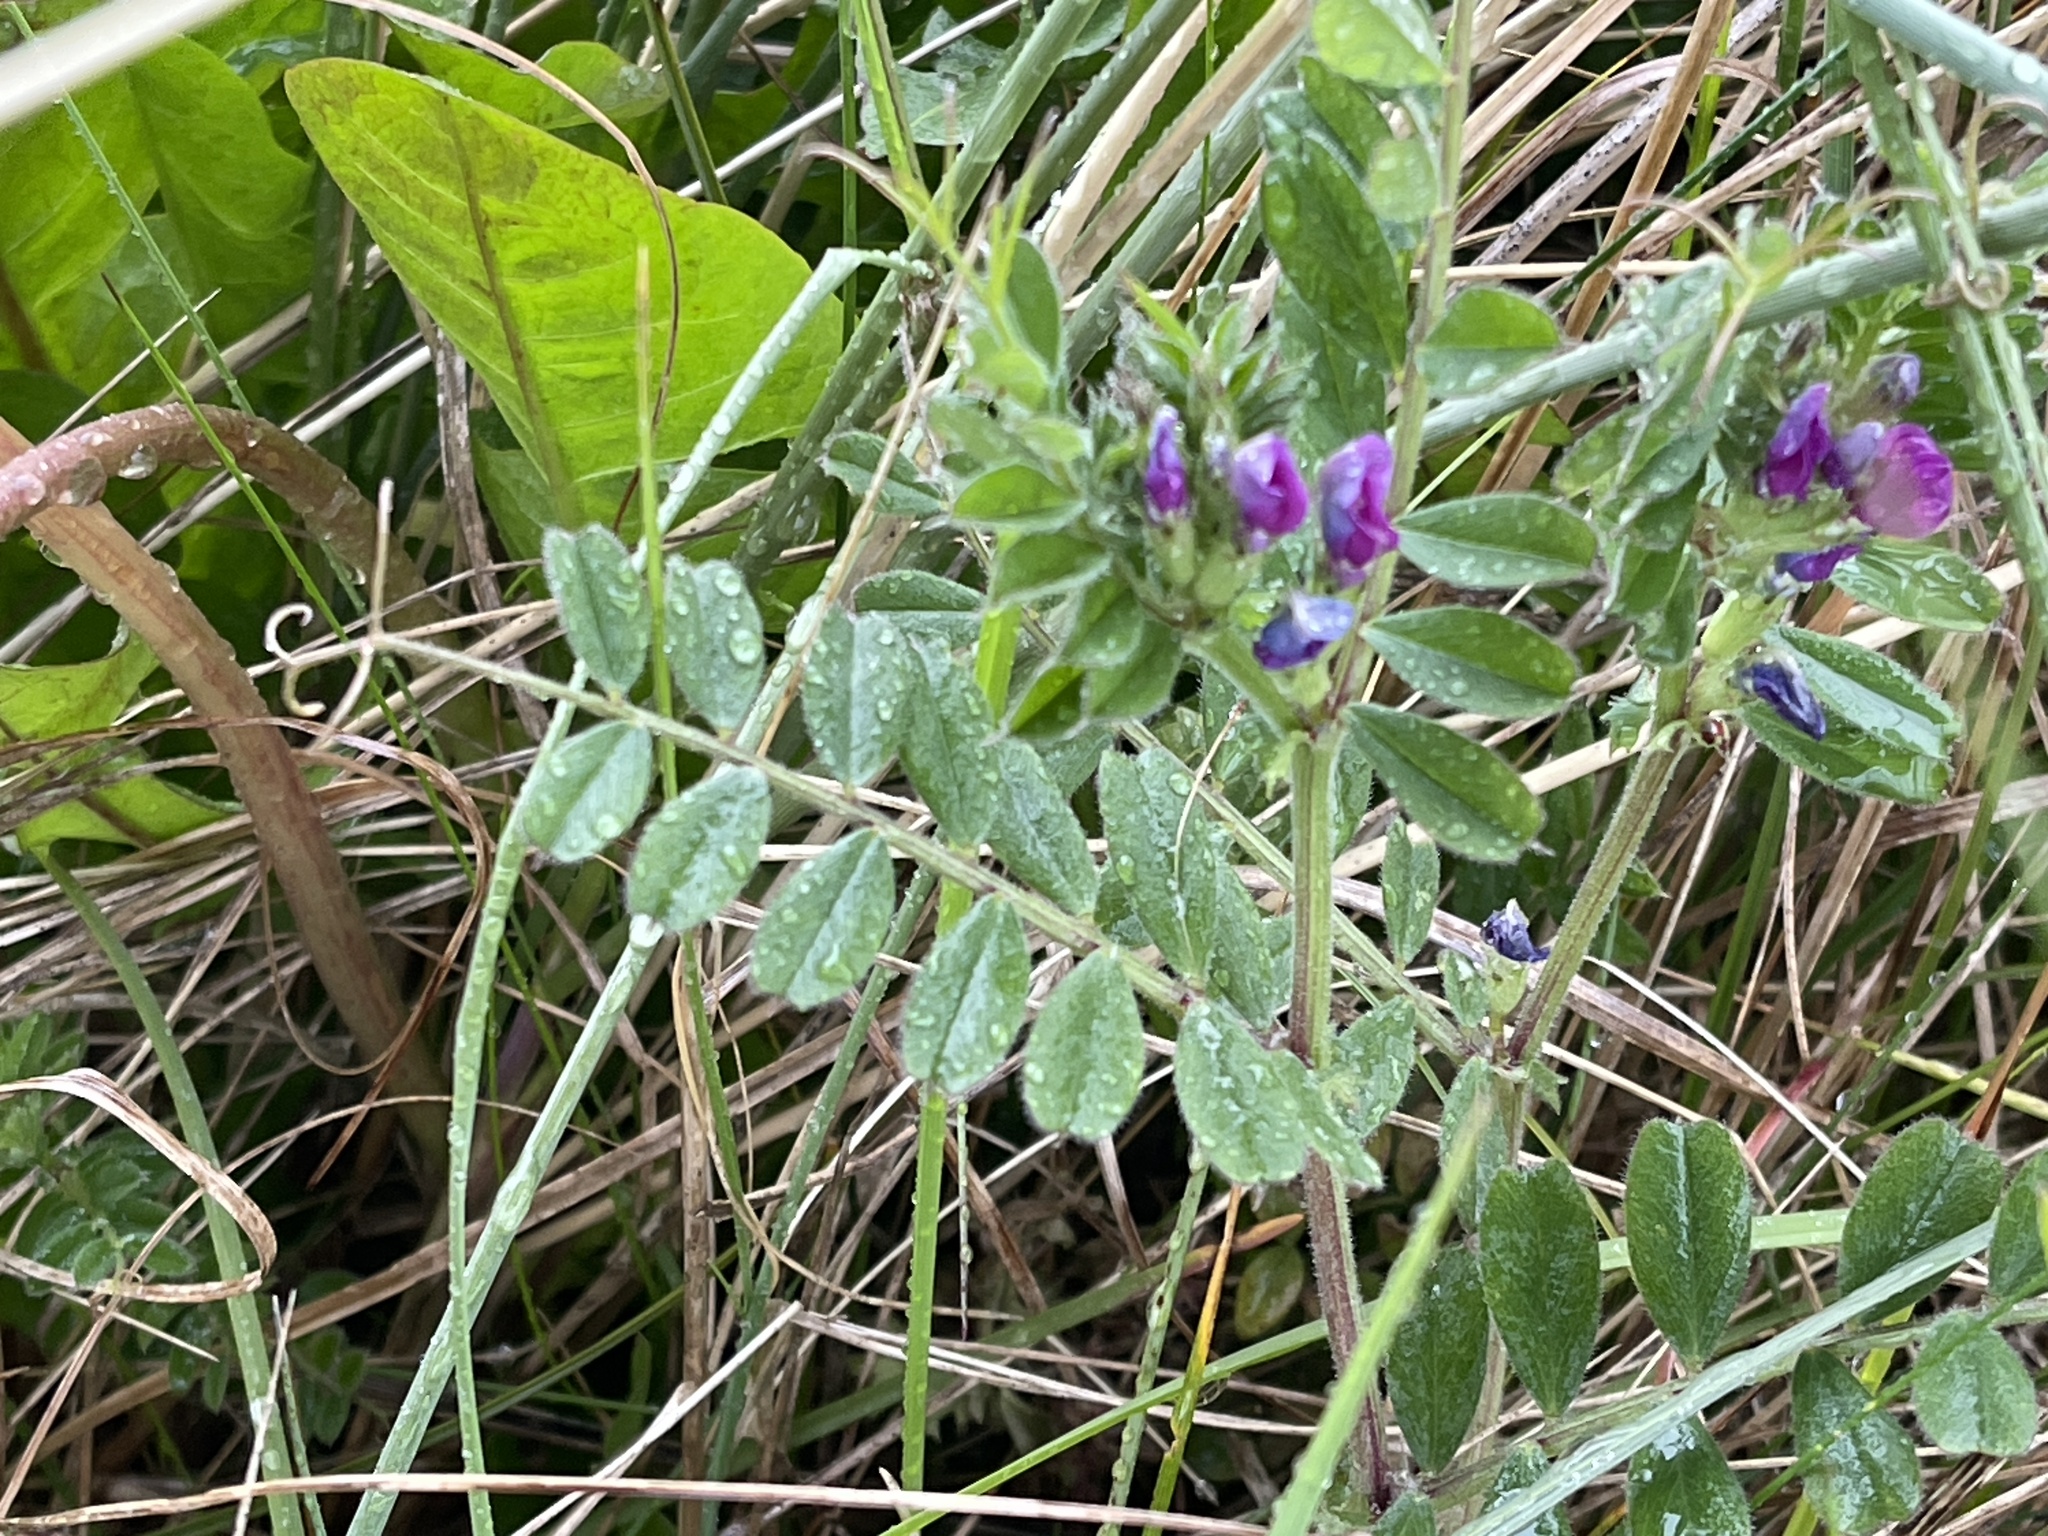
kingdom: Plantae
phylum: Tracheophyta
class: Magnoliopsida
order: Fabales
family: Fabaceae
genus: Vicia
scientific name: Vicia sativa
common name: Garden vetch
